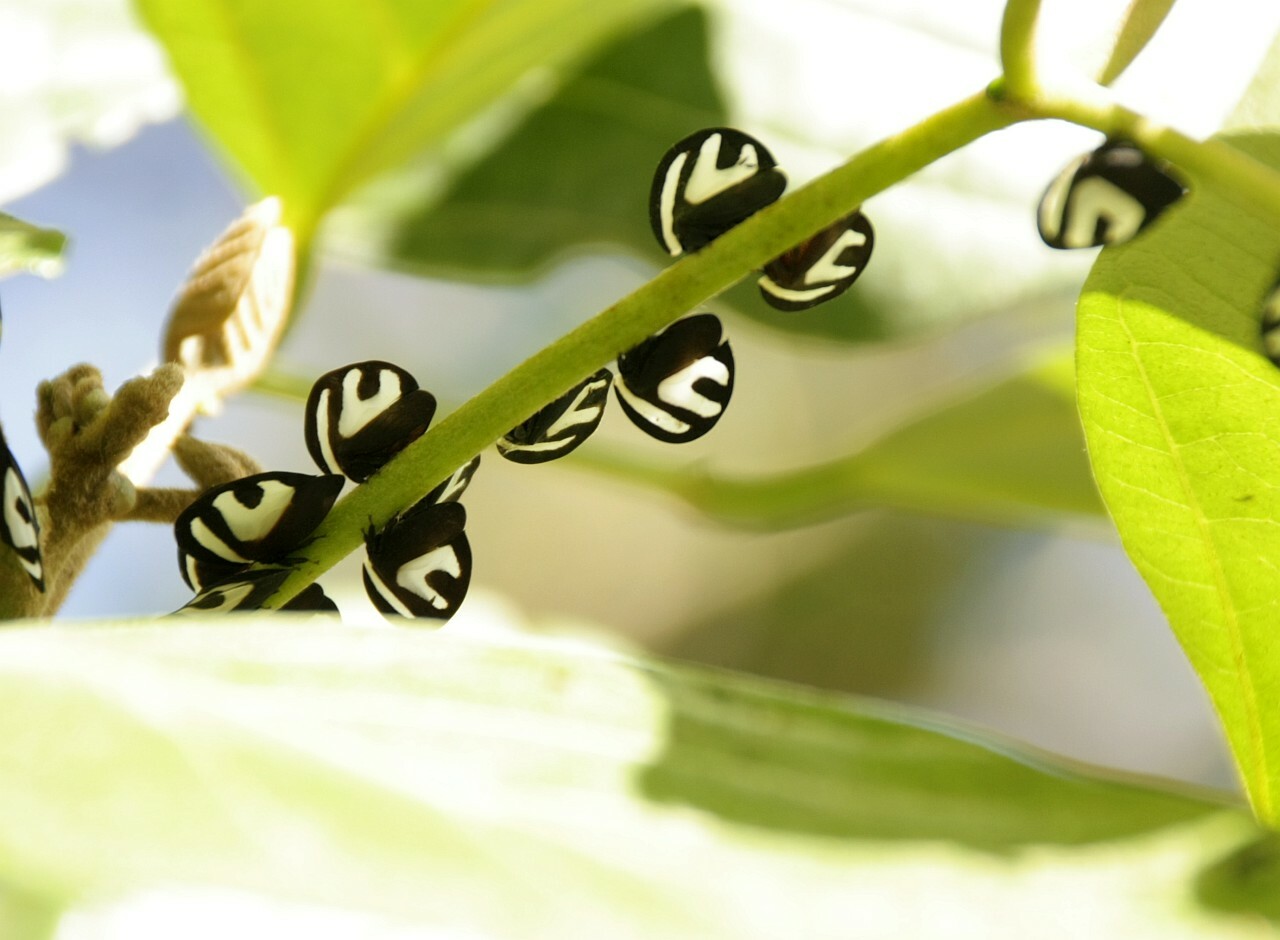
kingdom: Animalia
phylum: Arthropoda
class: Insecta
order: Hemiptera
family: Membracidae
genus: Membracis
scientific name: Membracis foliatafasciata
